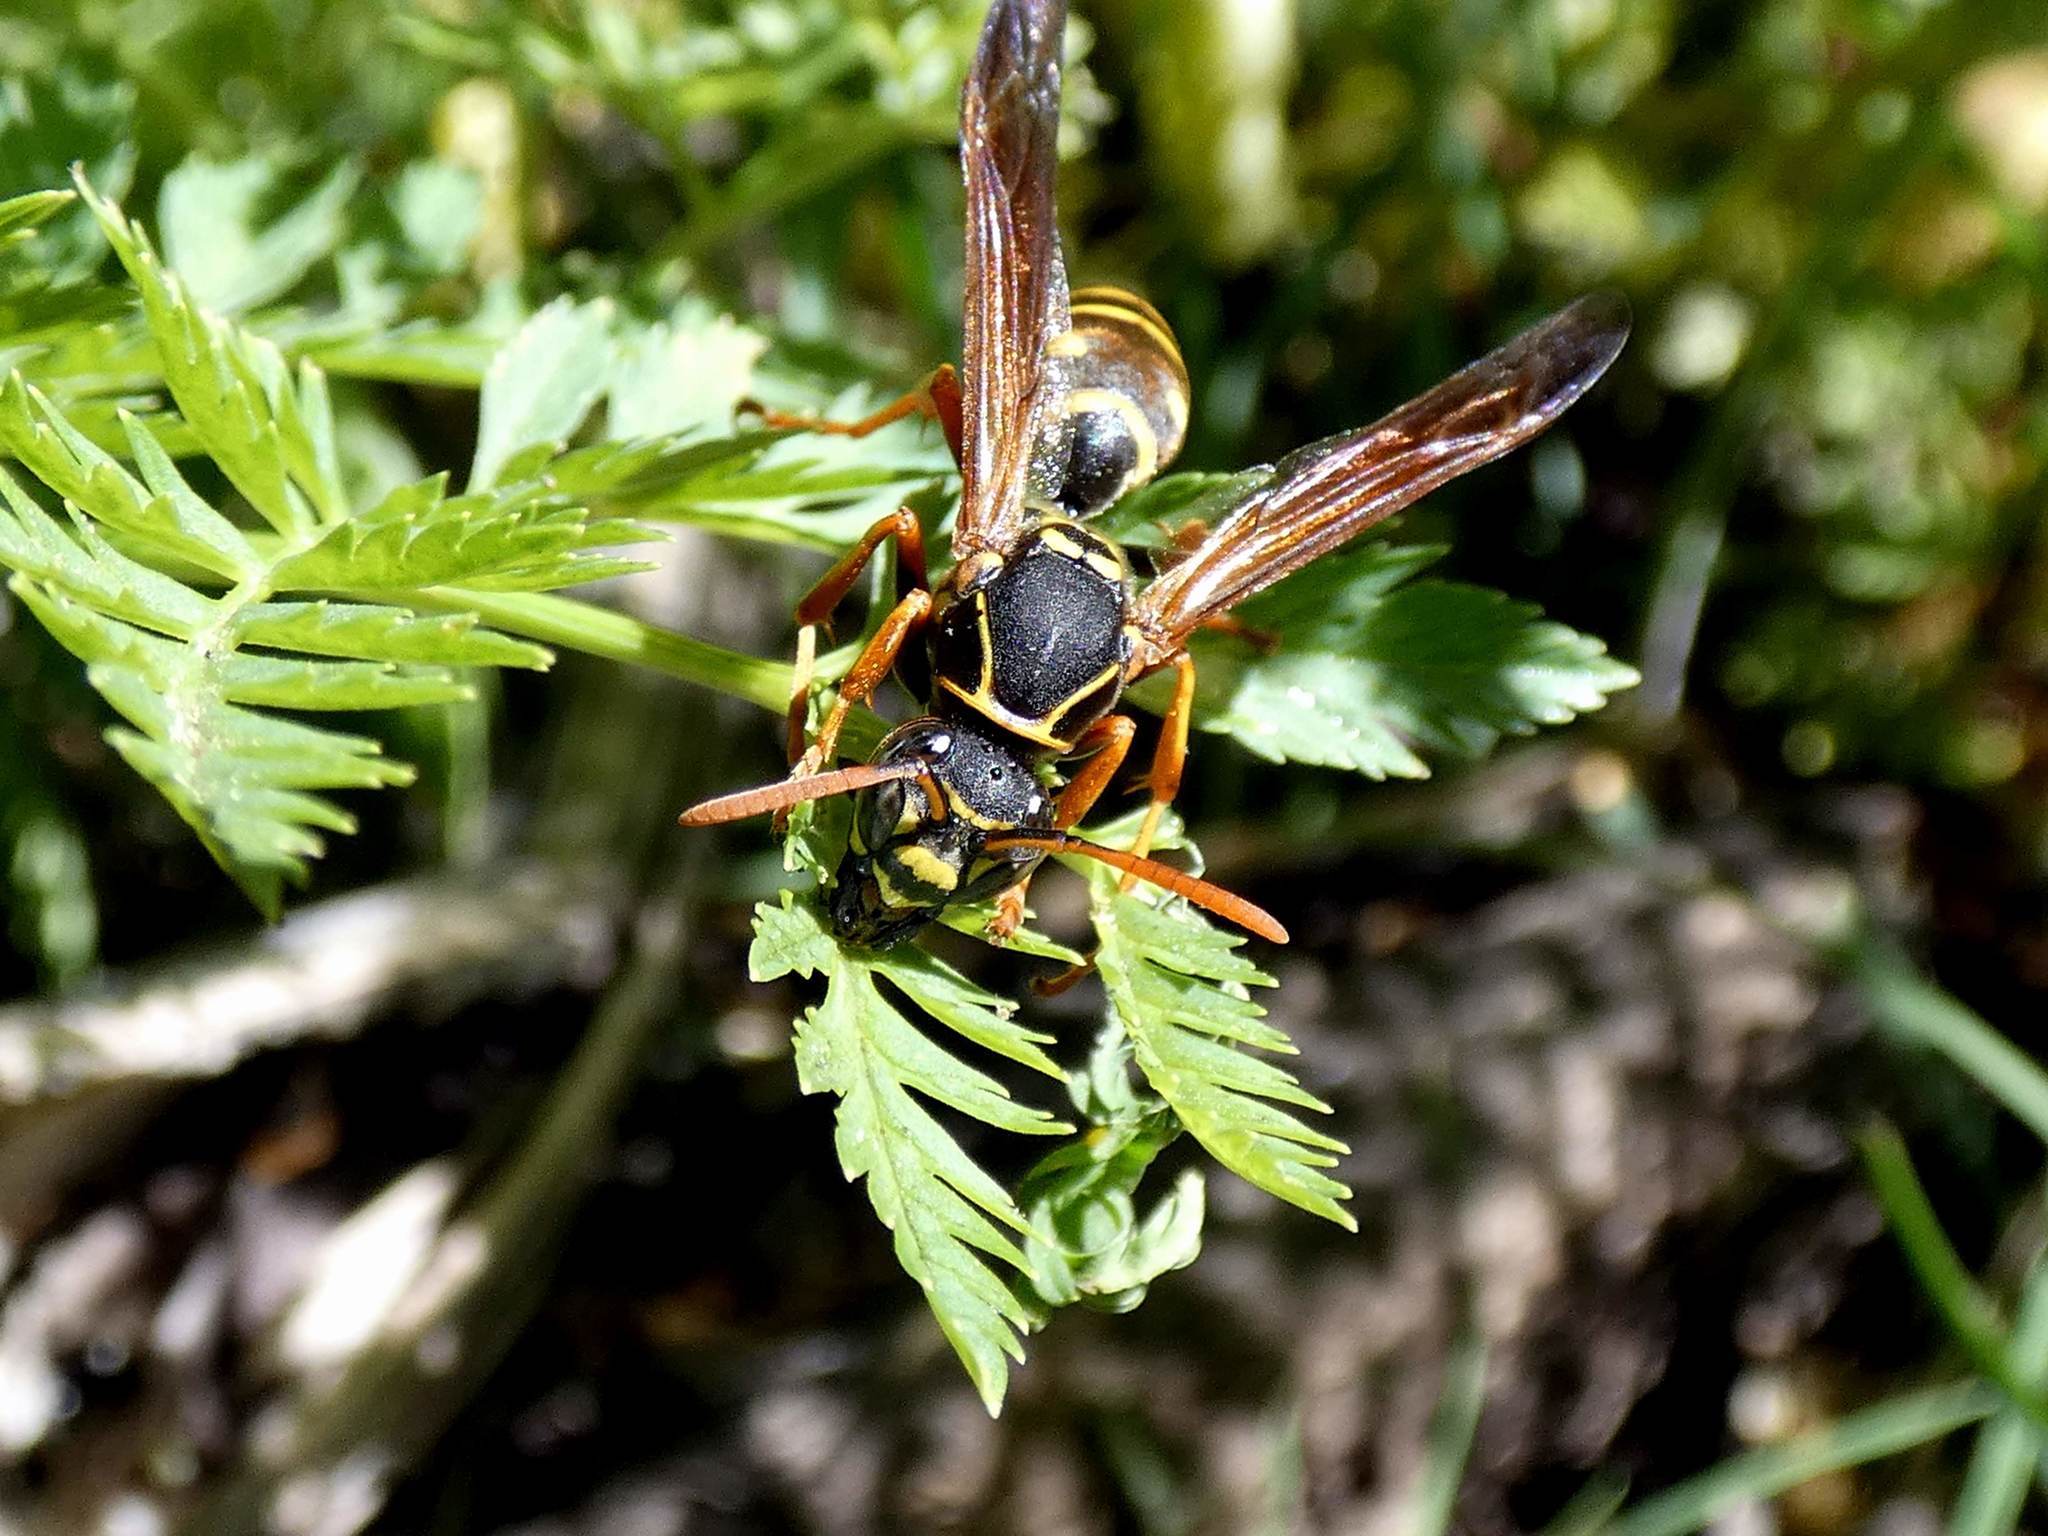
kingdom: Animalia
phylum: Arthropoda
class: Insecta
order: Hymenoptera
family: Eumenidae
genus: Polistes
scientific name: Polistes chinensis
